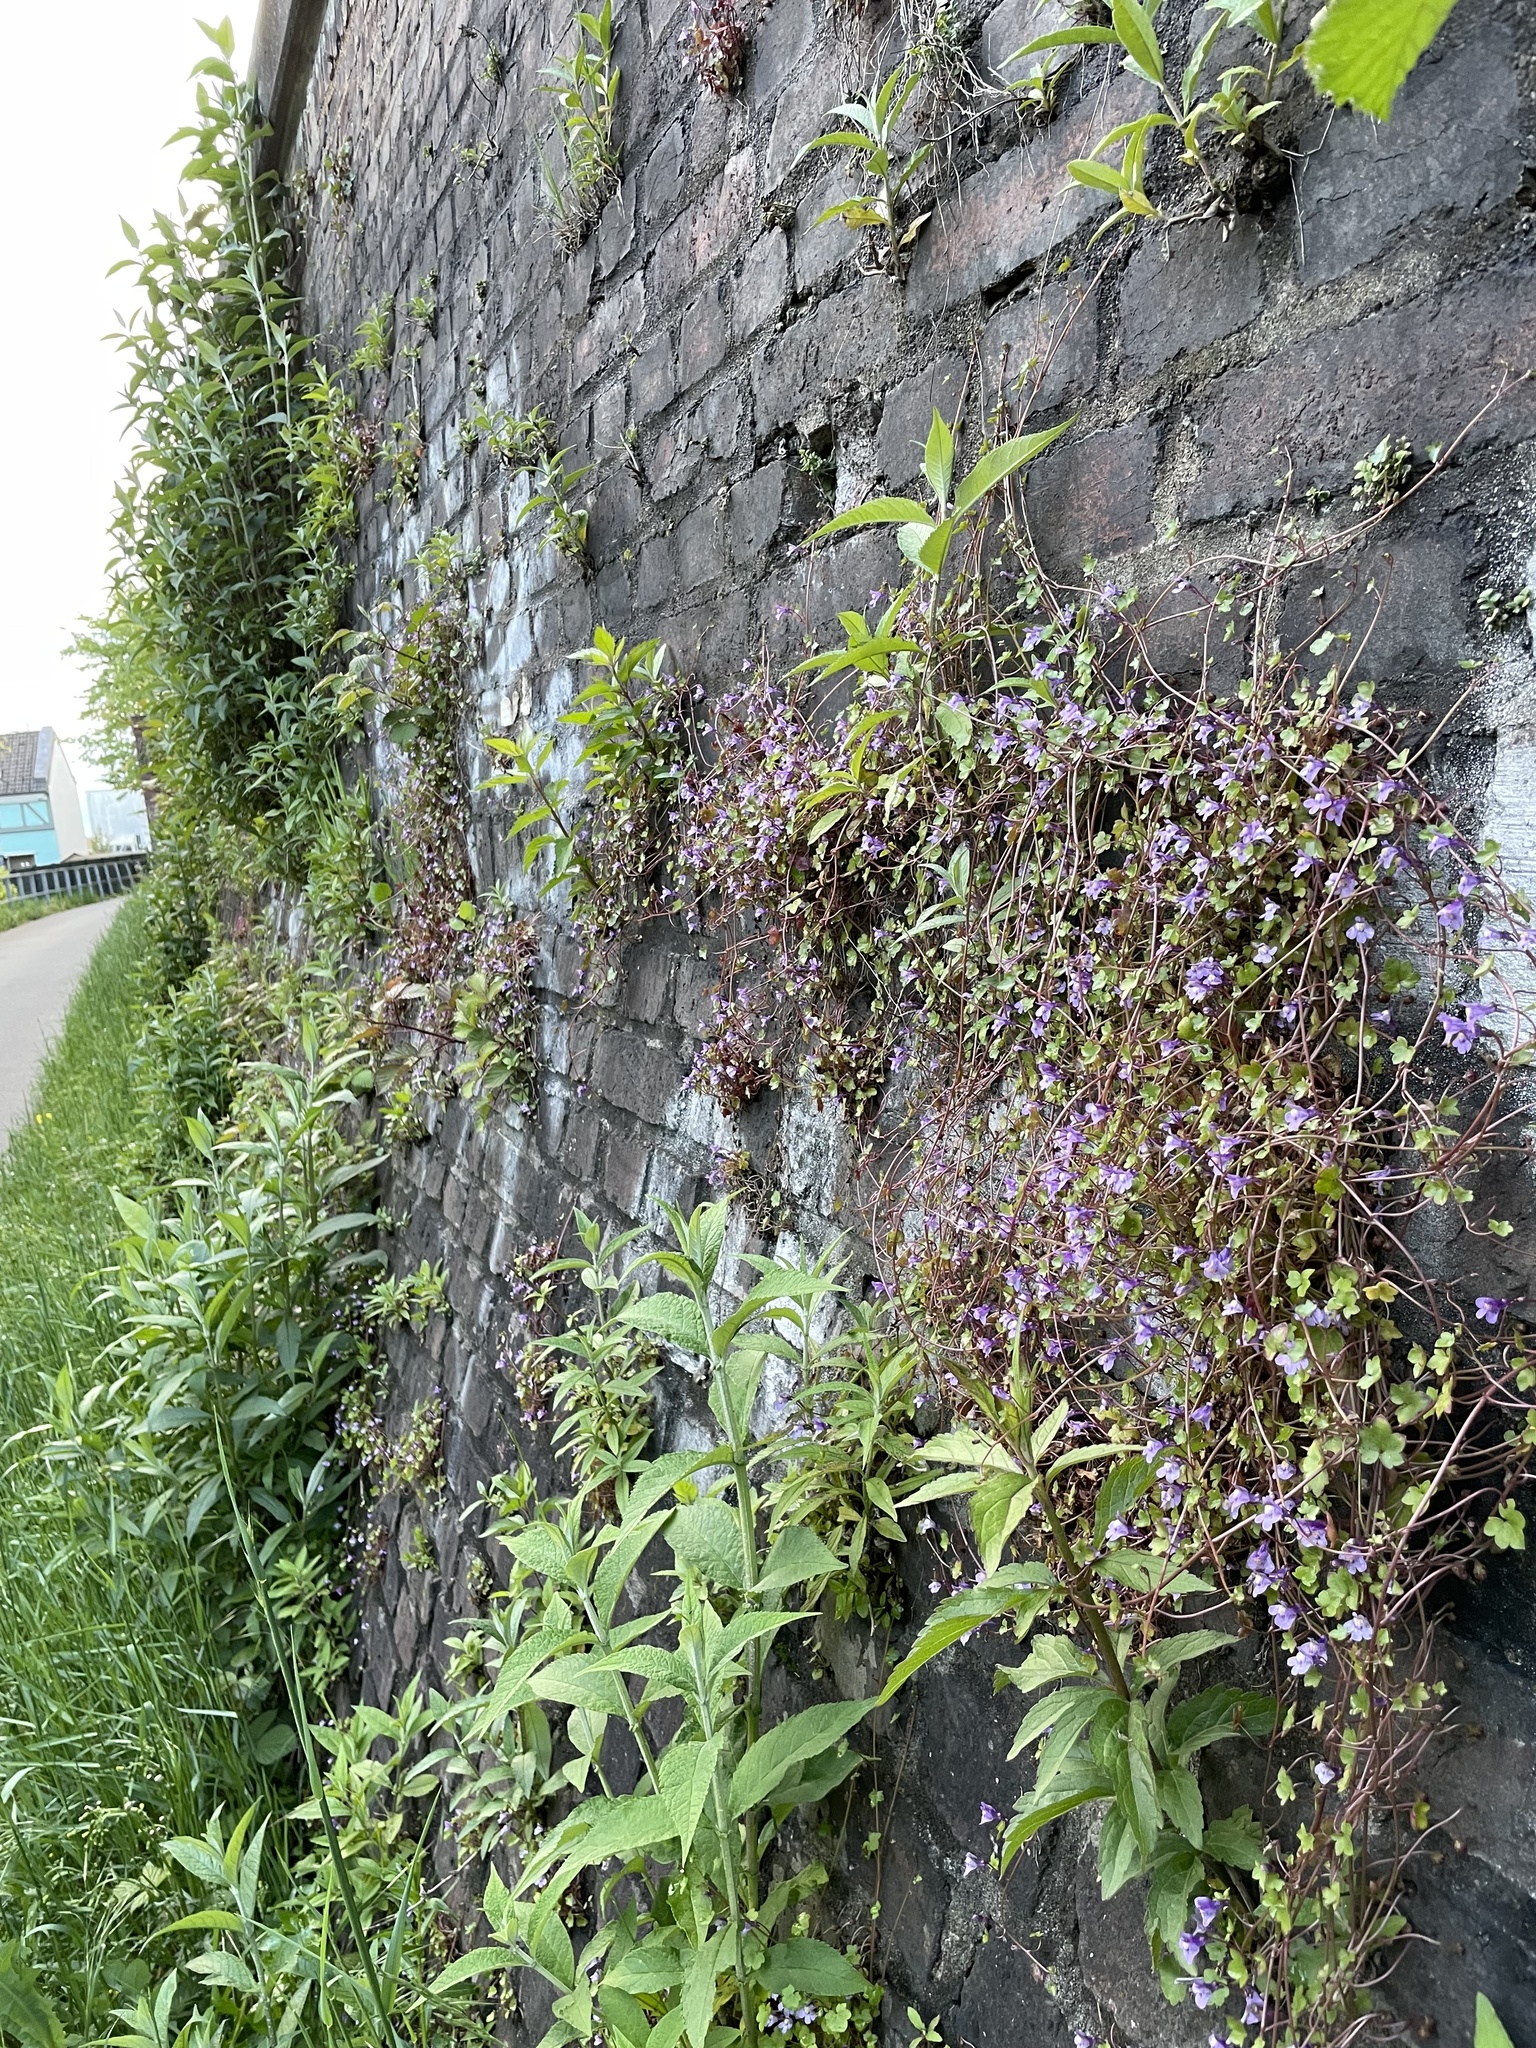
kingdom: Plantae
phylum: Tracheophyta
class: Magnoliopsida
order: Lamiales
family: Plantaginaceae
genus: Cymbalaria
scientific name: Cymbalaria muralis
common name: Ivy-leaved toadflax
